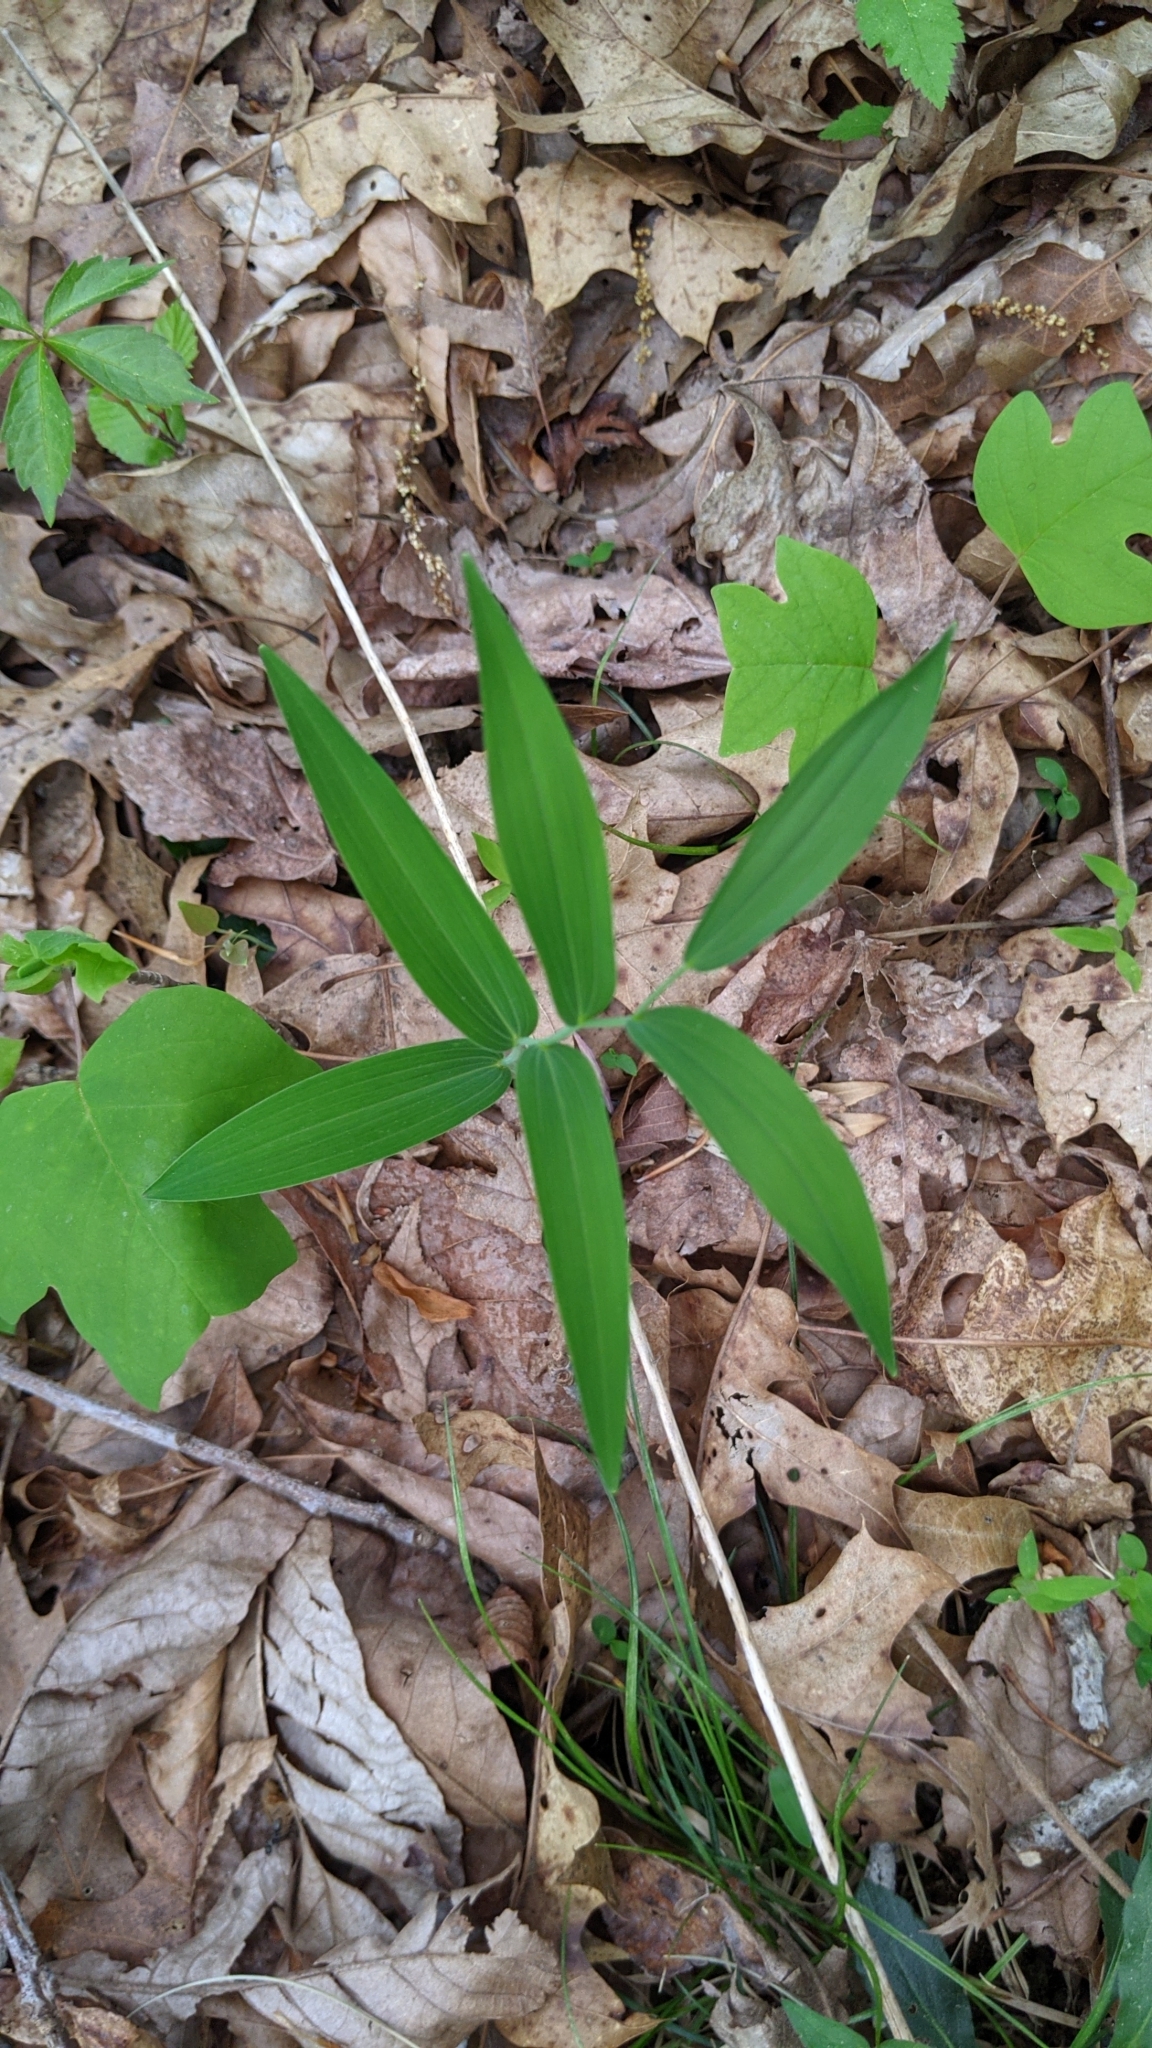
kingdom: Plantae
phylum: Tracheophyta
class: Liliopsida
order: Asparagales
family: Asparagaceae
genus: Polygonatum
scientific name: Polygonatum biflorum
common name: American solomon's-seal
